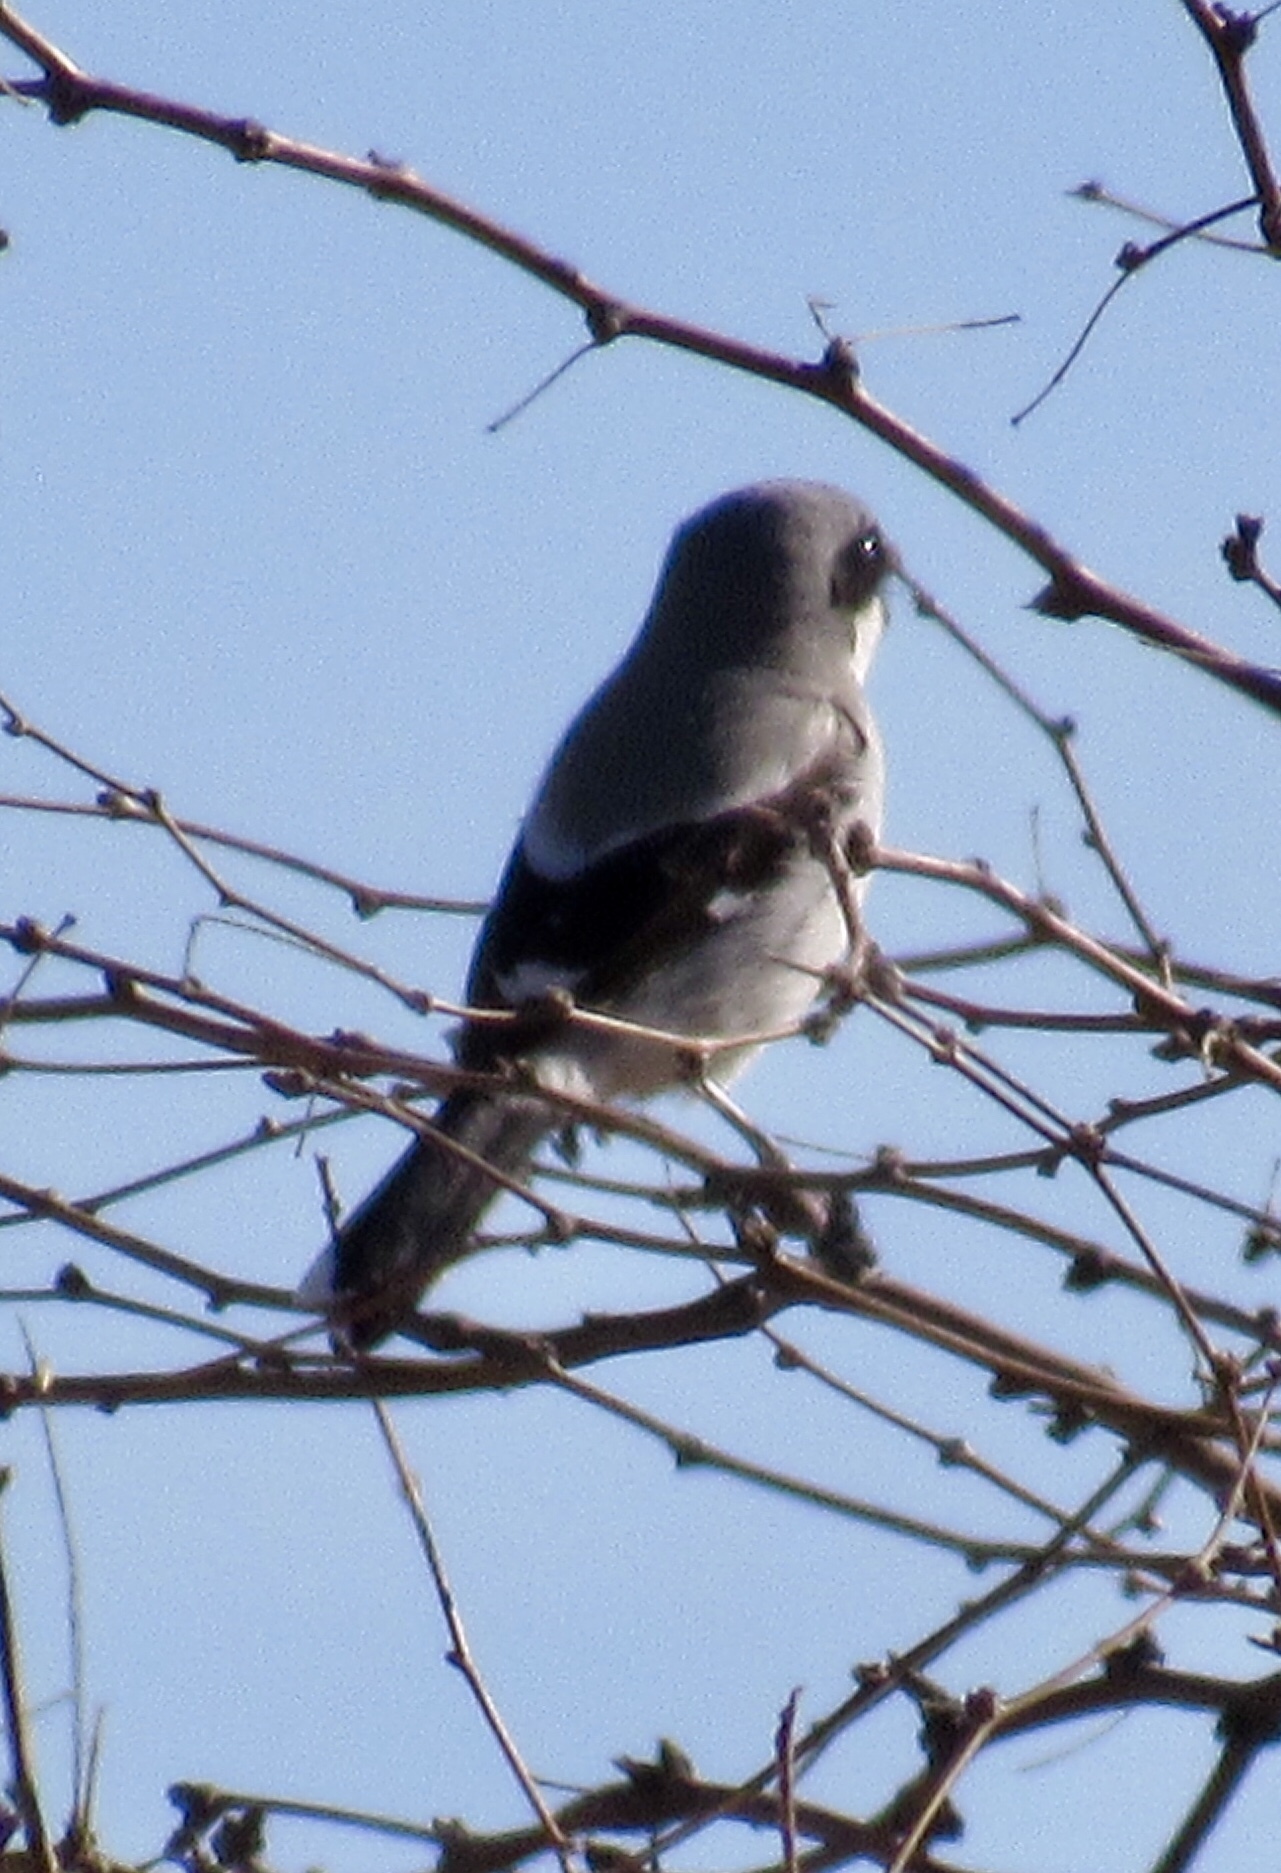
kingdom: Animalia
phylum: Chordata
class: Aves
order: Passeriformes
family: Laniidae
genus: Lanius
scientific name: Lanius ludovicianus
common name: Loggerhead shrike
